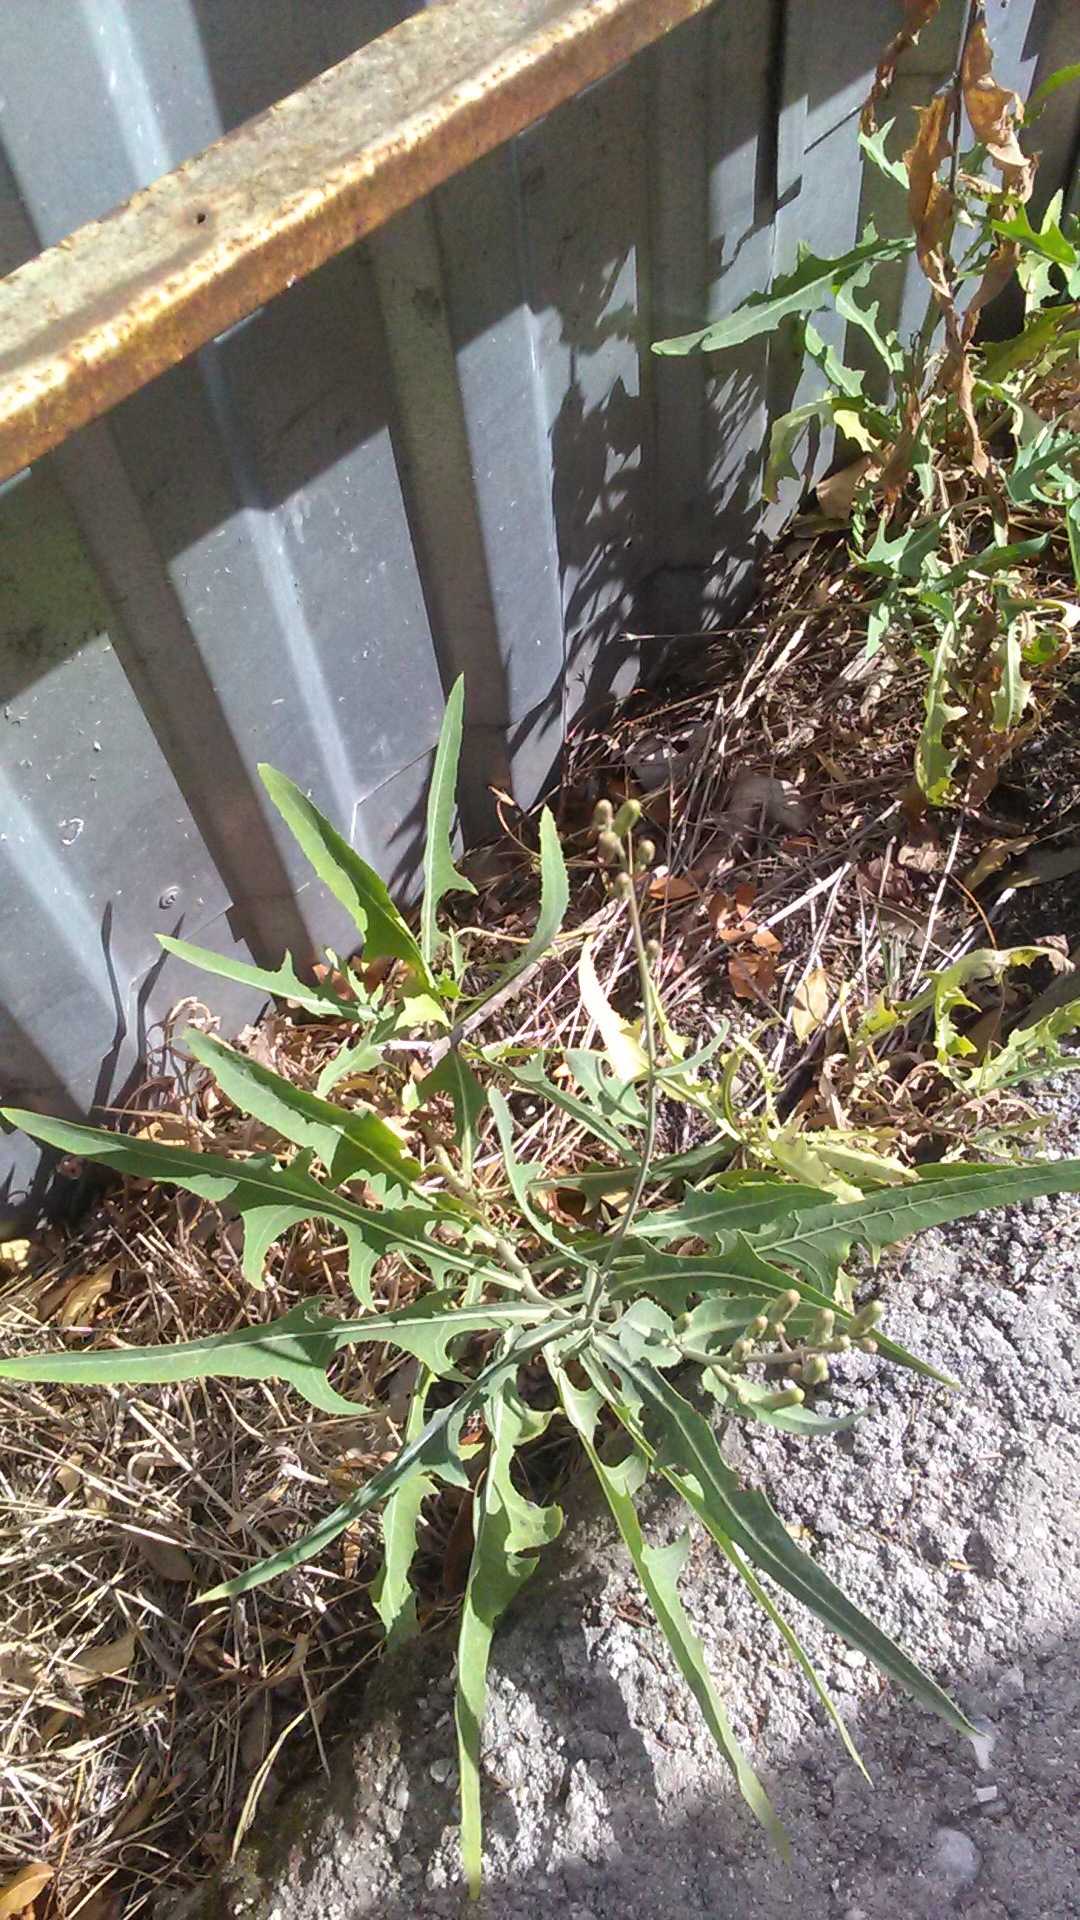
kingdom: Plantae
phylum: Tracheophyta
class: Magnoliopsida
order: Brassicales
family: Brassicaceae
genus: Diplotaxis
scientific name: Diplotaxis tenuifolia
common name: Perennial wall-rocket
